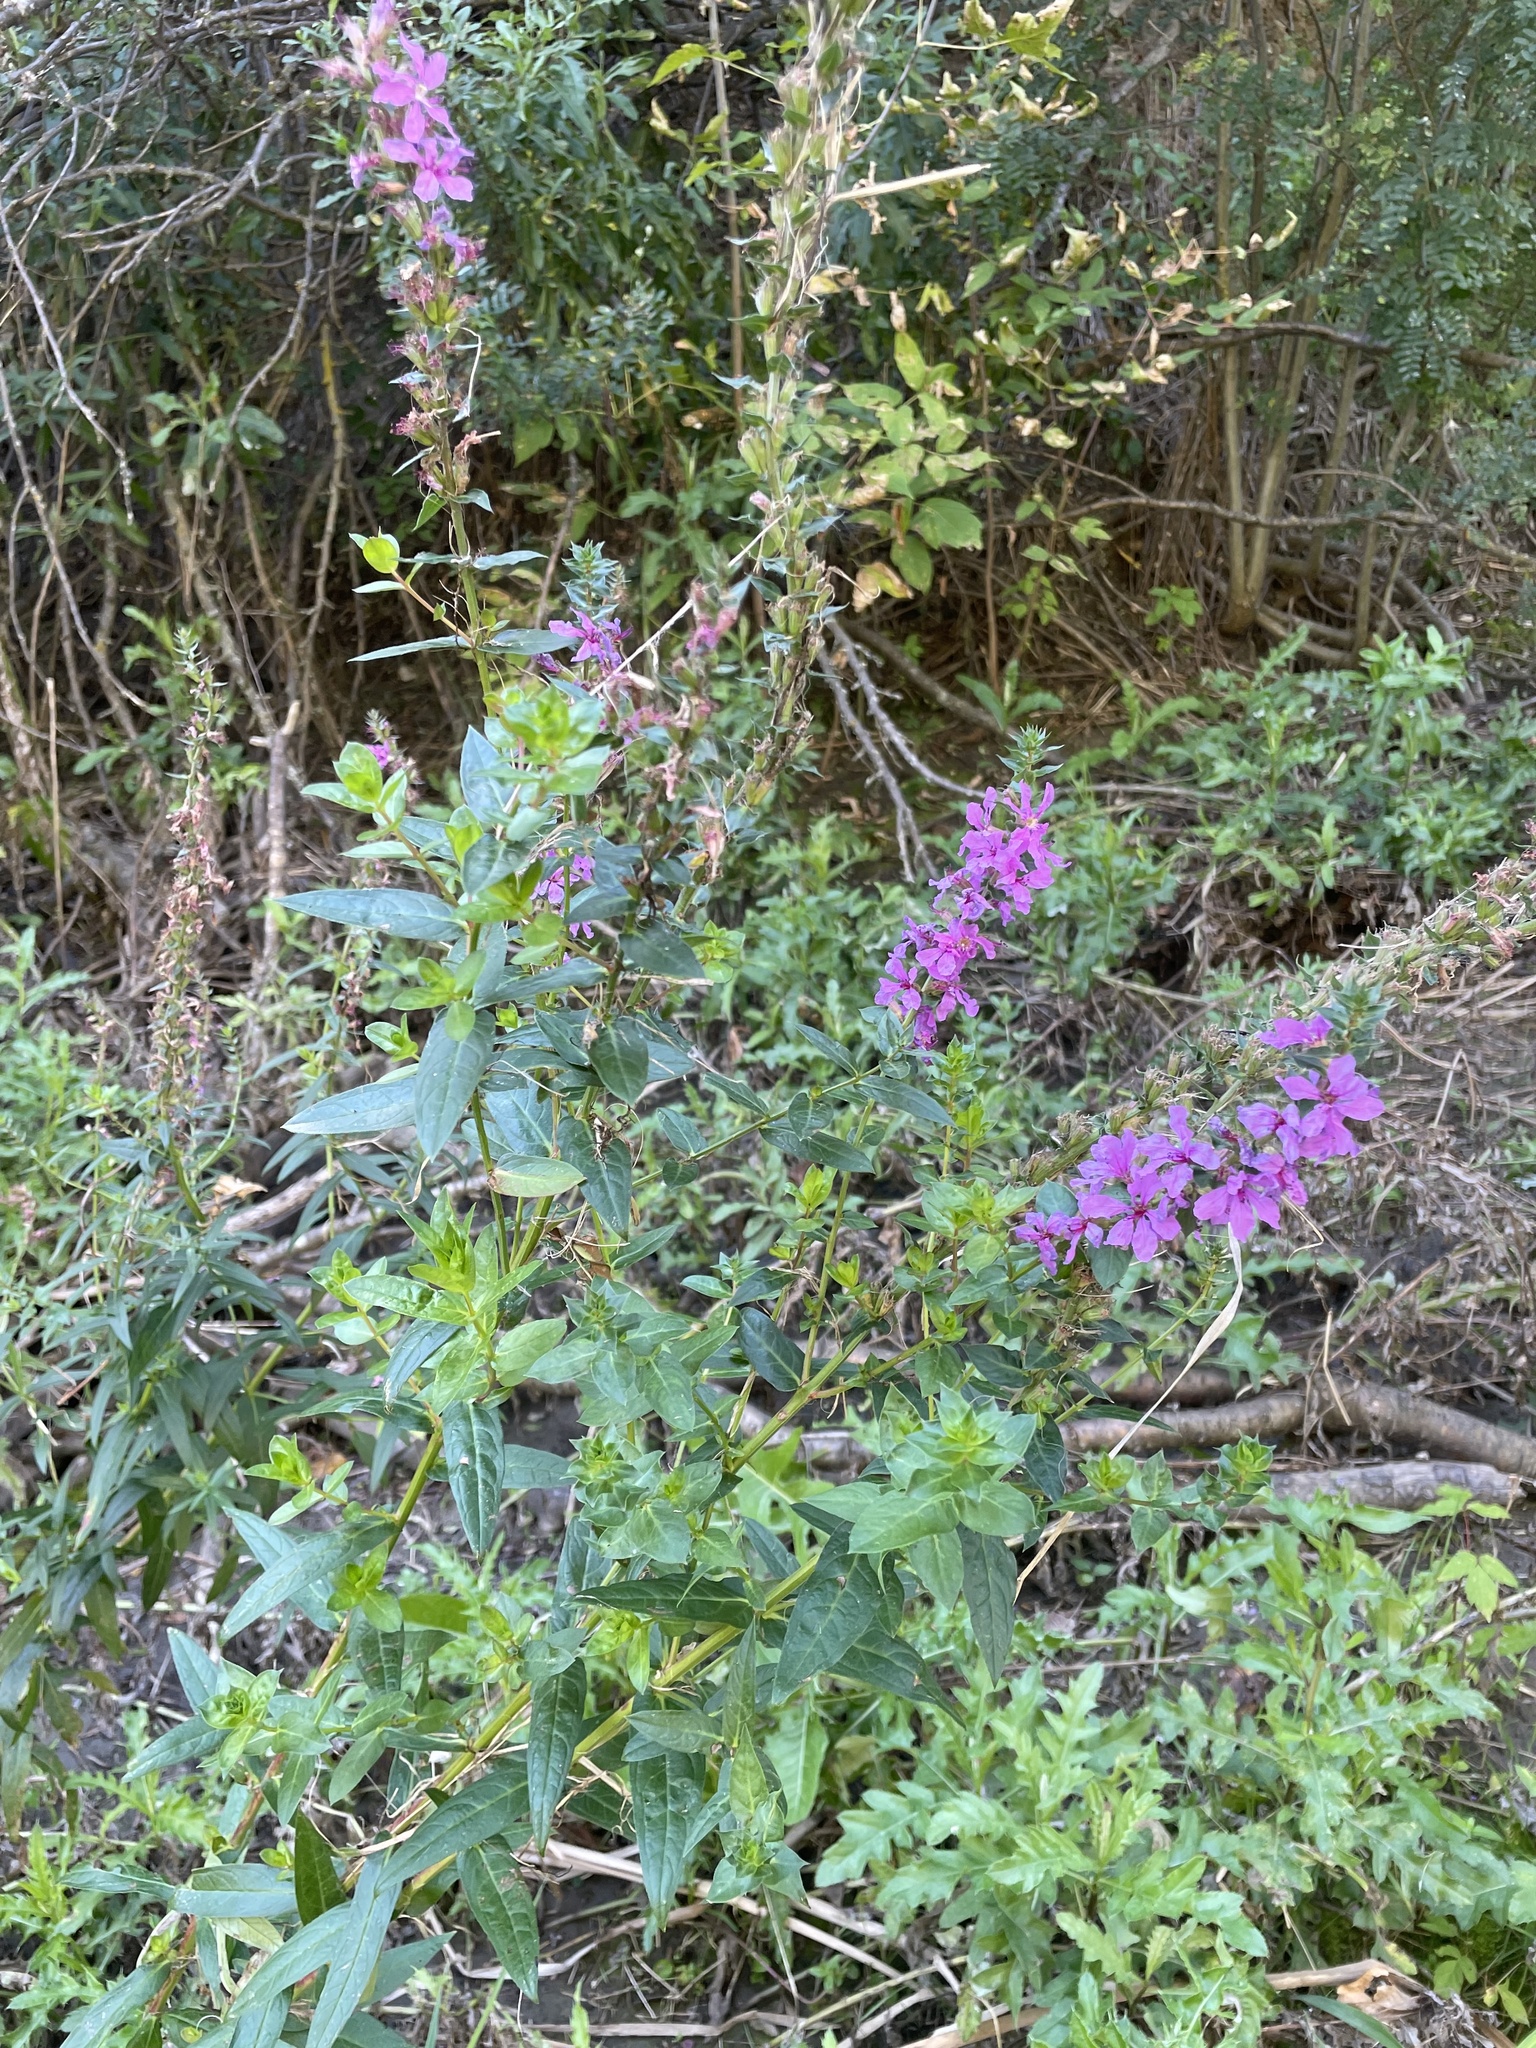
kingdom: Plantae
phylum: Tracheophyta
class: Magnoliopsida
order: Myrtales
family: Lythraceae
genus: Lythrum
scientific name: Lythrum salicaria
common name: Purple loosestrife
